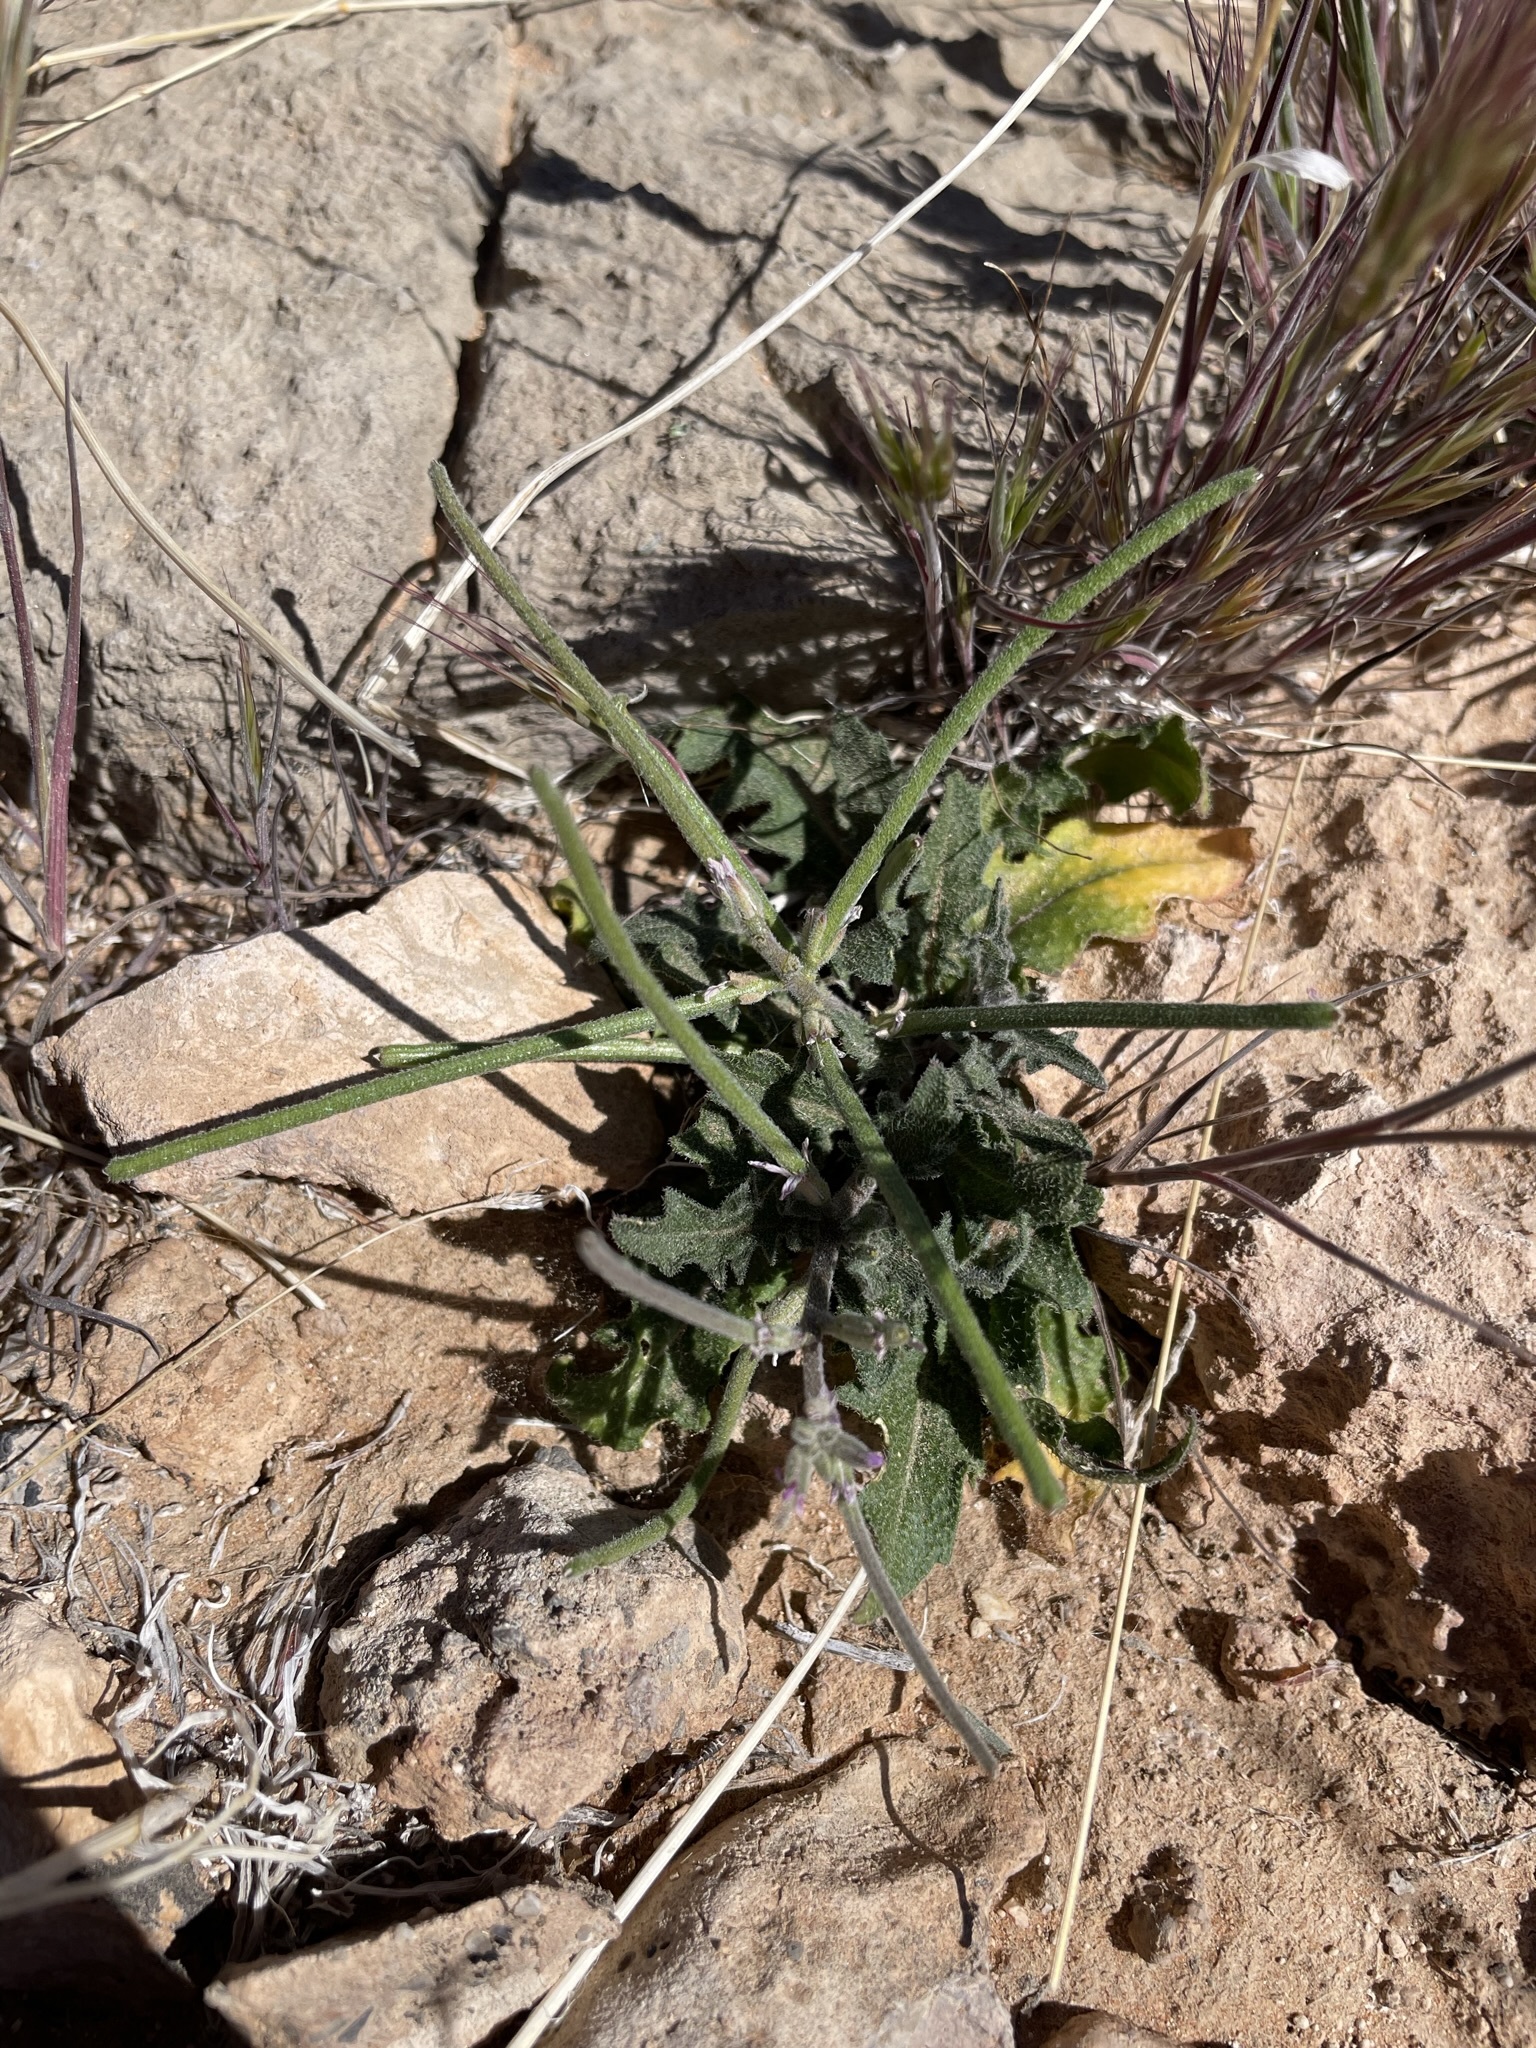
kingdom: Plantae
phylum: Tracheophyta
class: Magnoliopsida
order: Brassicales
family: Brassicaceae
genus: Strigosella
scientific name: Strigosella africana
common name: African mustard
